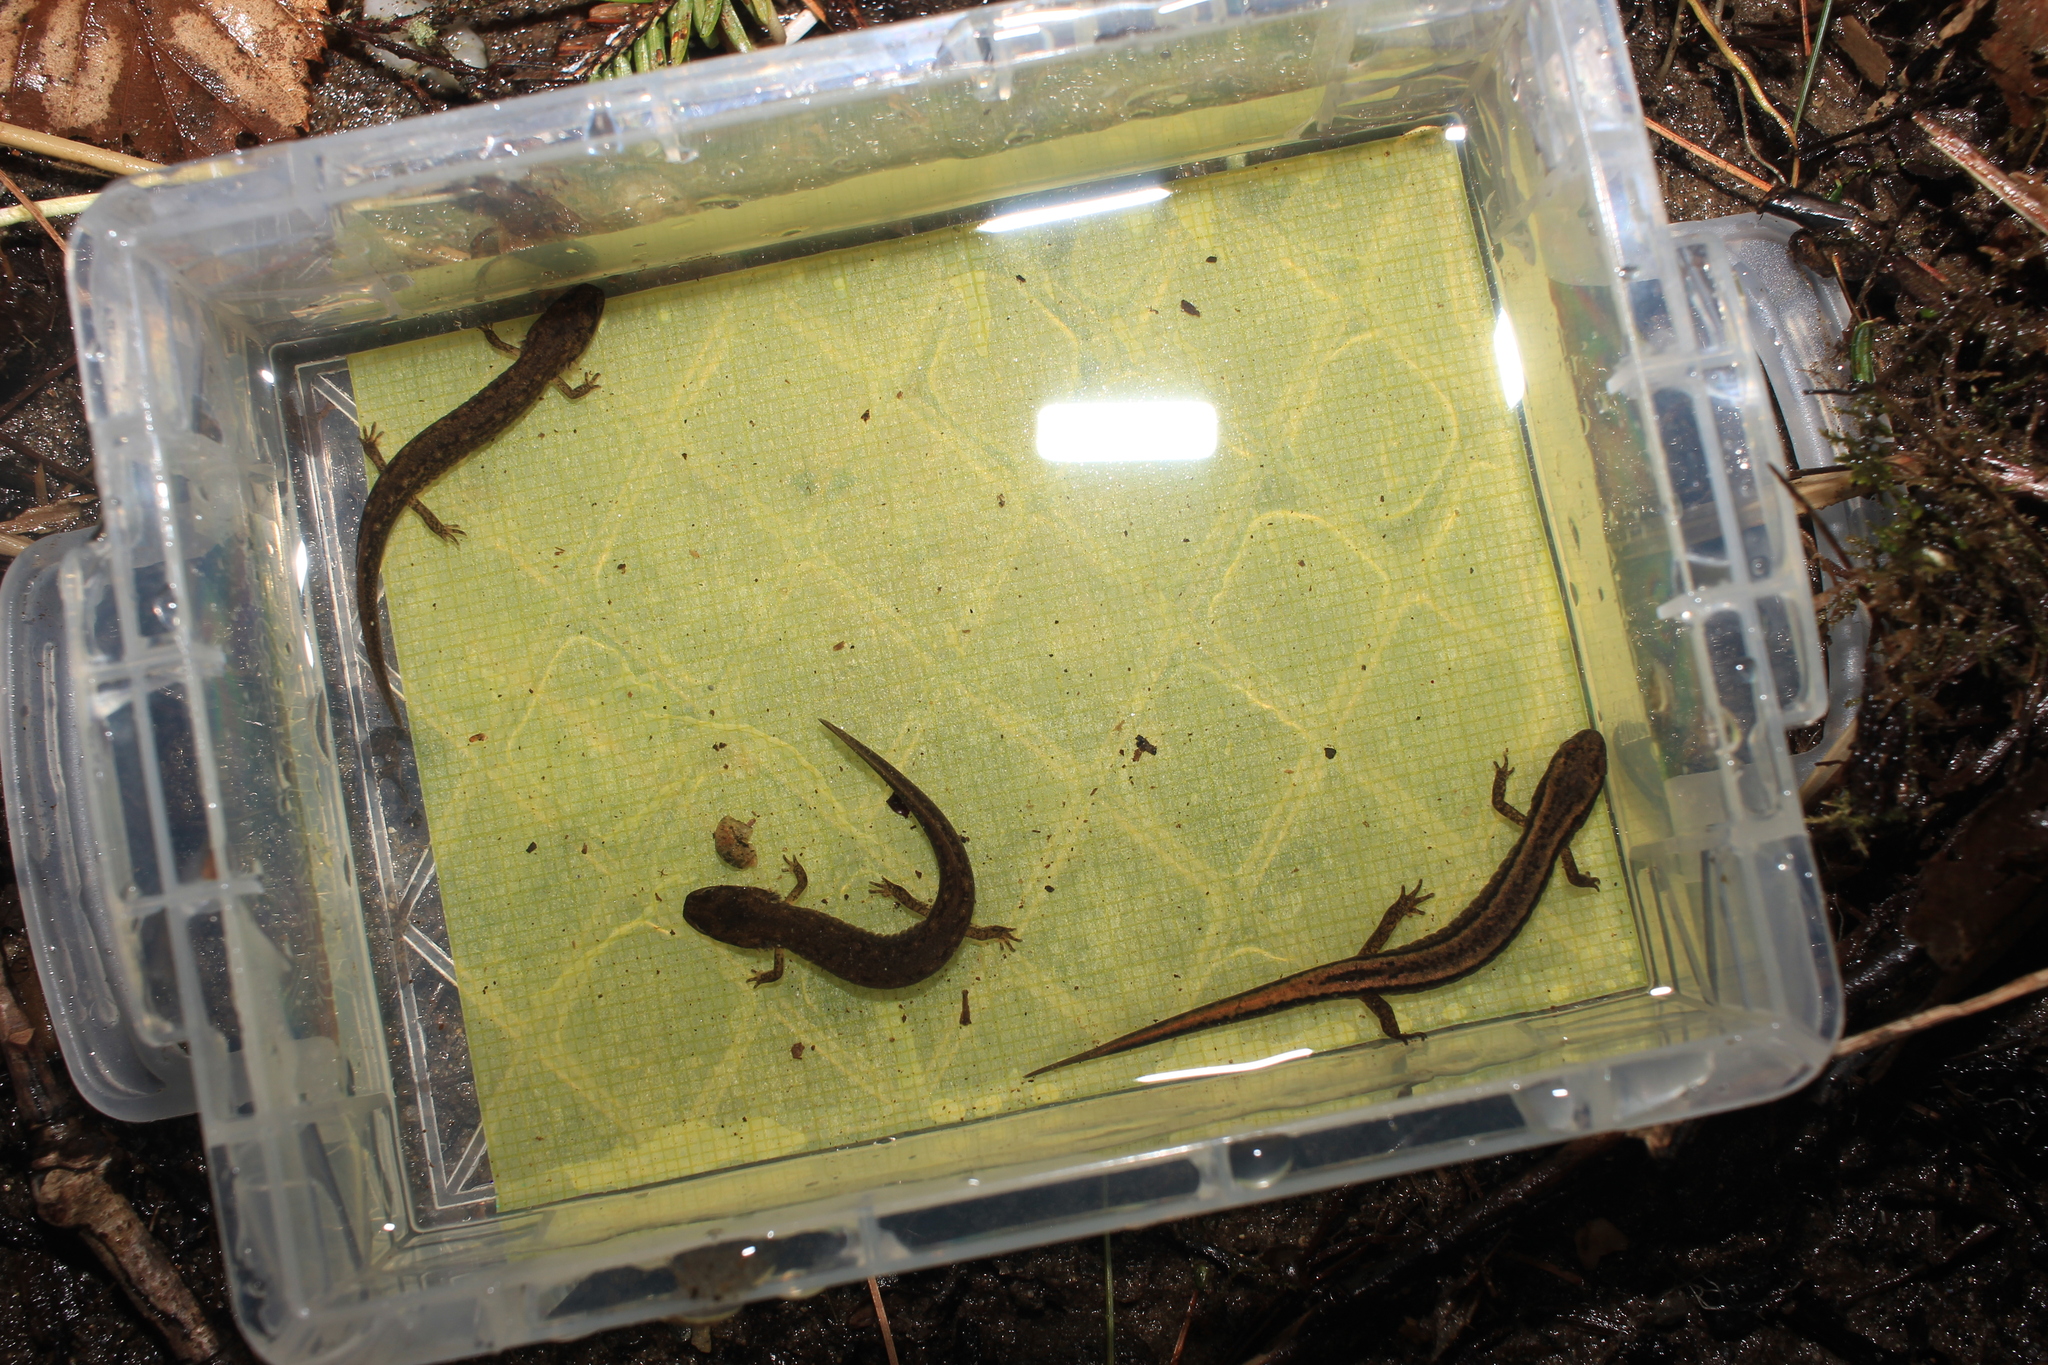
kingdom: Animalia
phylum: Chordata
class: Amphibia
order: Caudata
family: Plethodontidae
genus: Eurycea
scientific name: Eurycea bislineata
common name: Northern two-lined salamander
